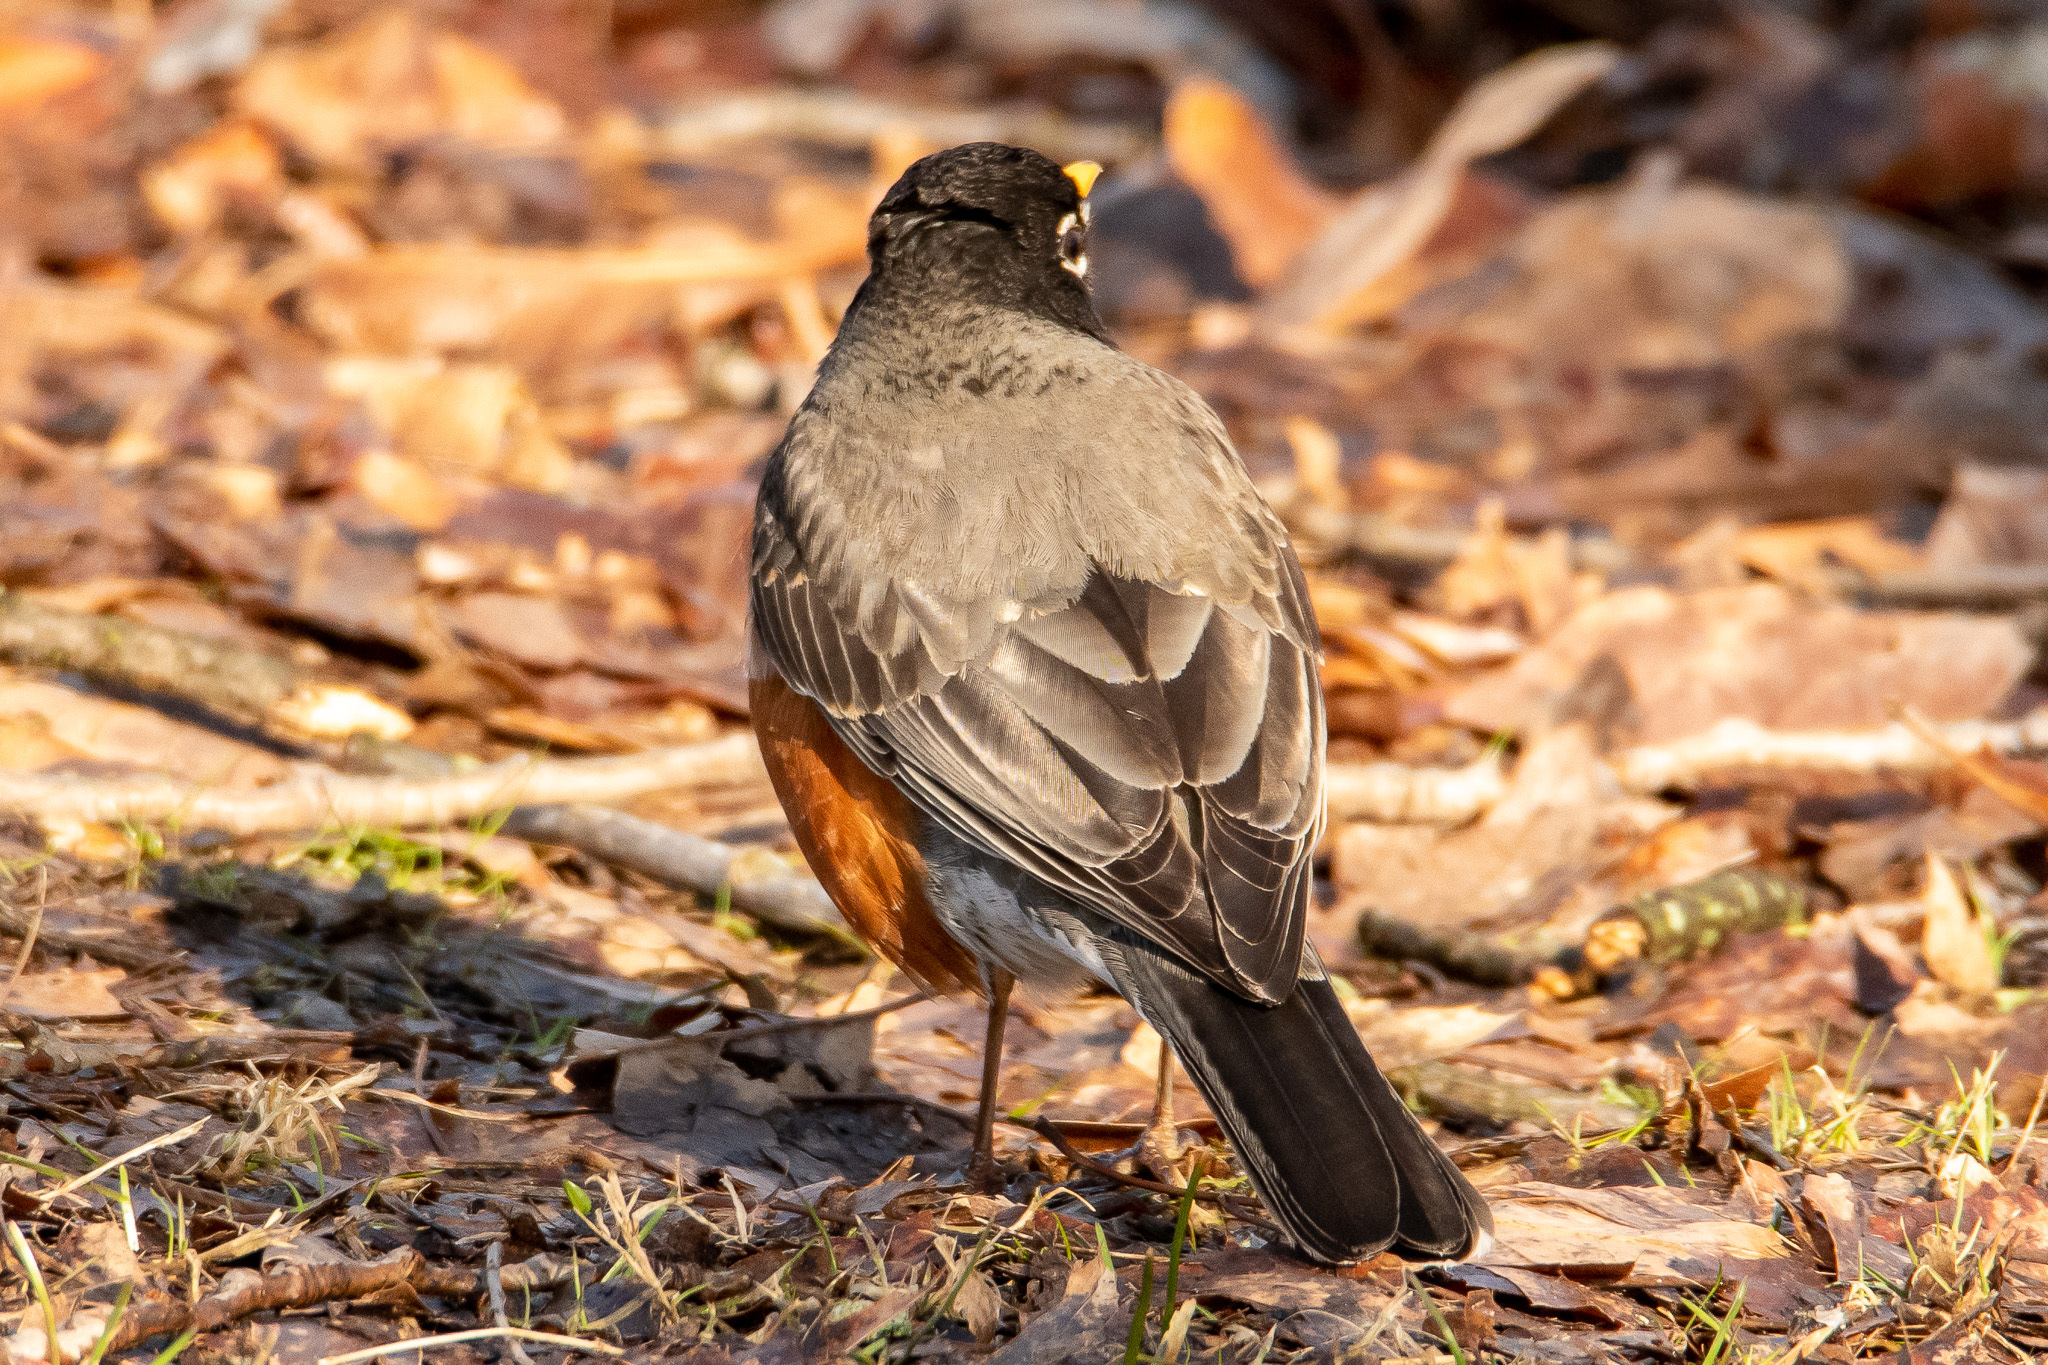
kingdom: Animalia
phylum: Chordata
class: Aves
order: Passeriformes
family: Turdidae
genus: Turdus
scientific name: Turdus migratorius
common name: American robin
